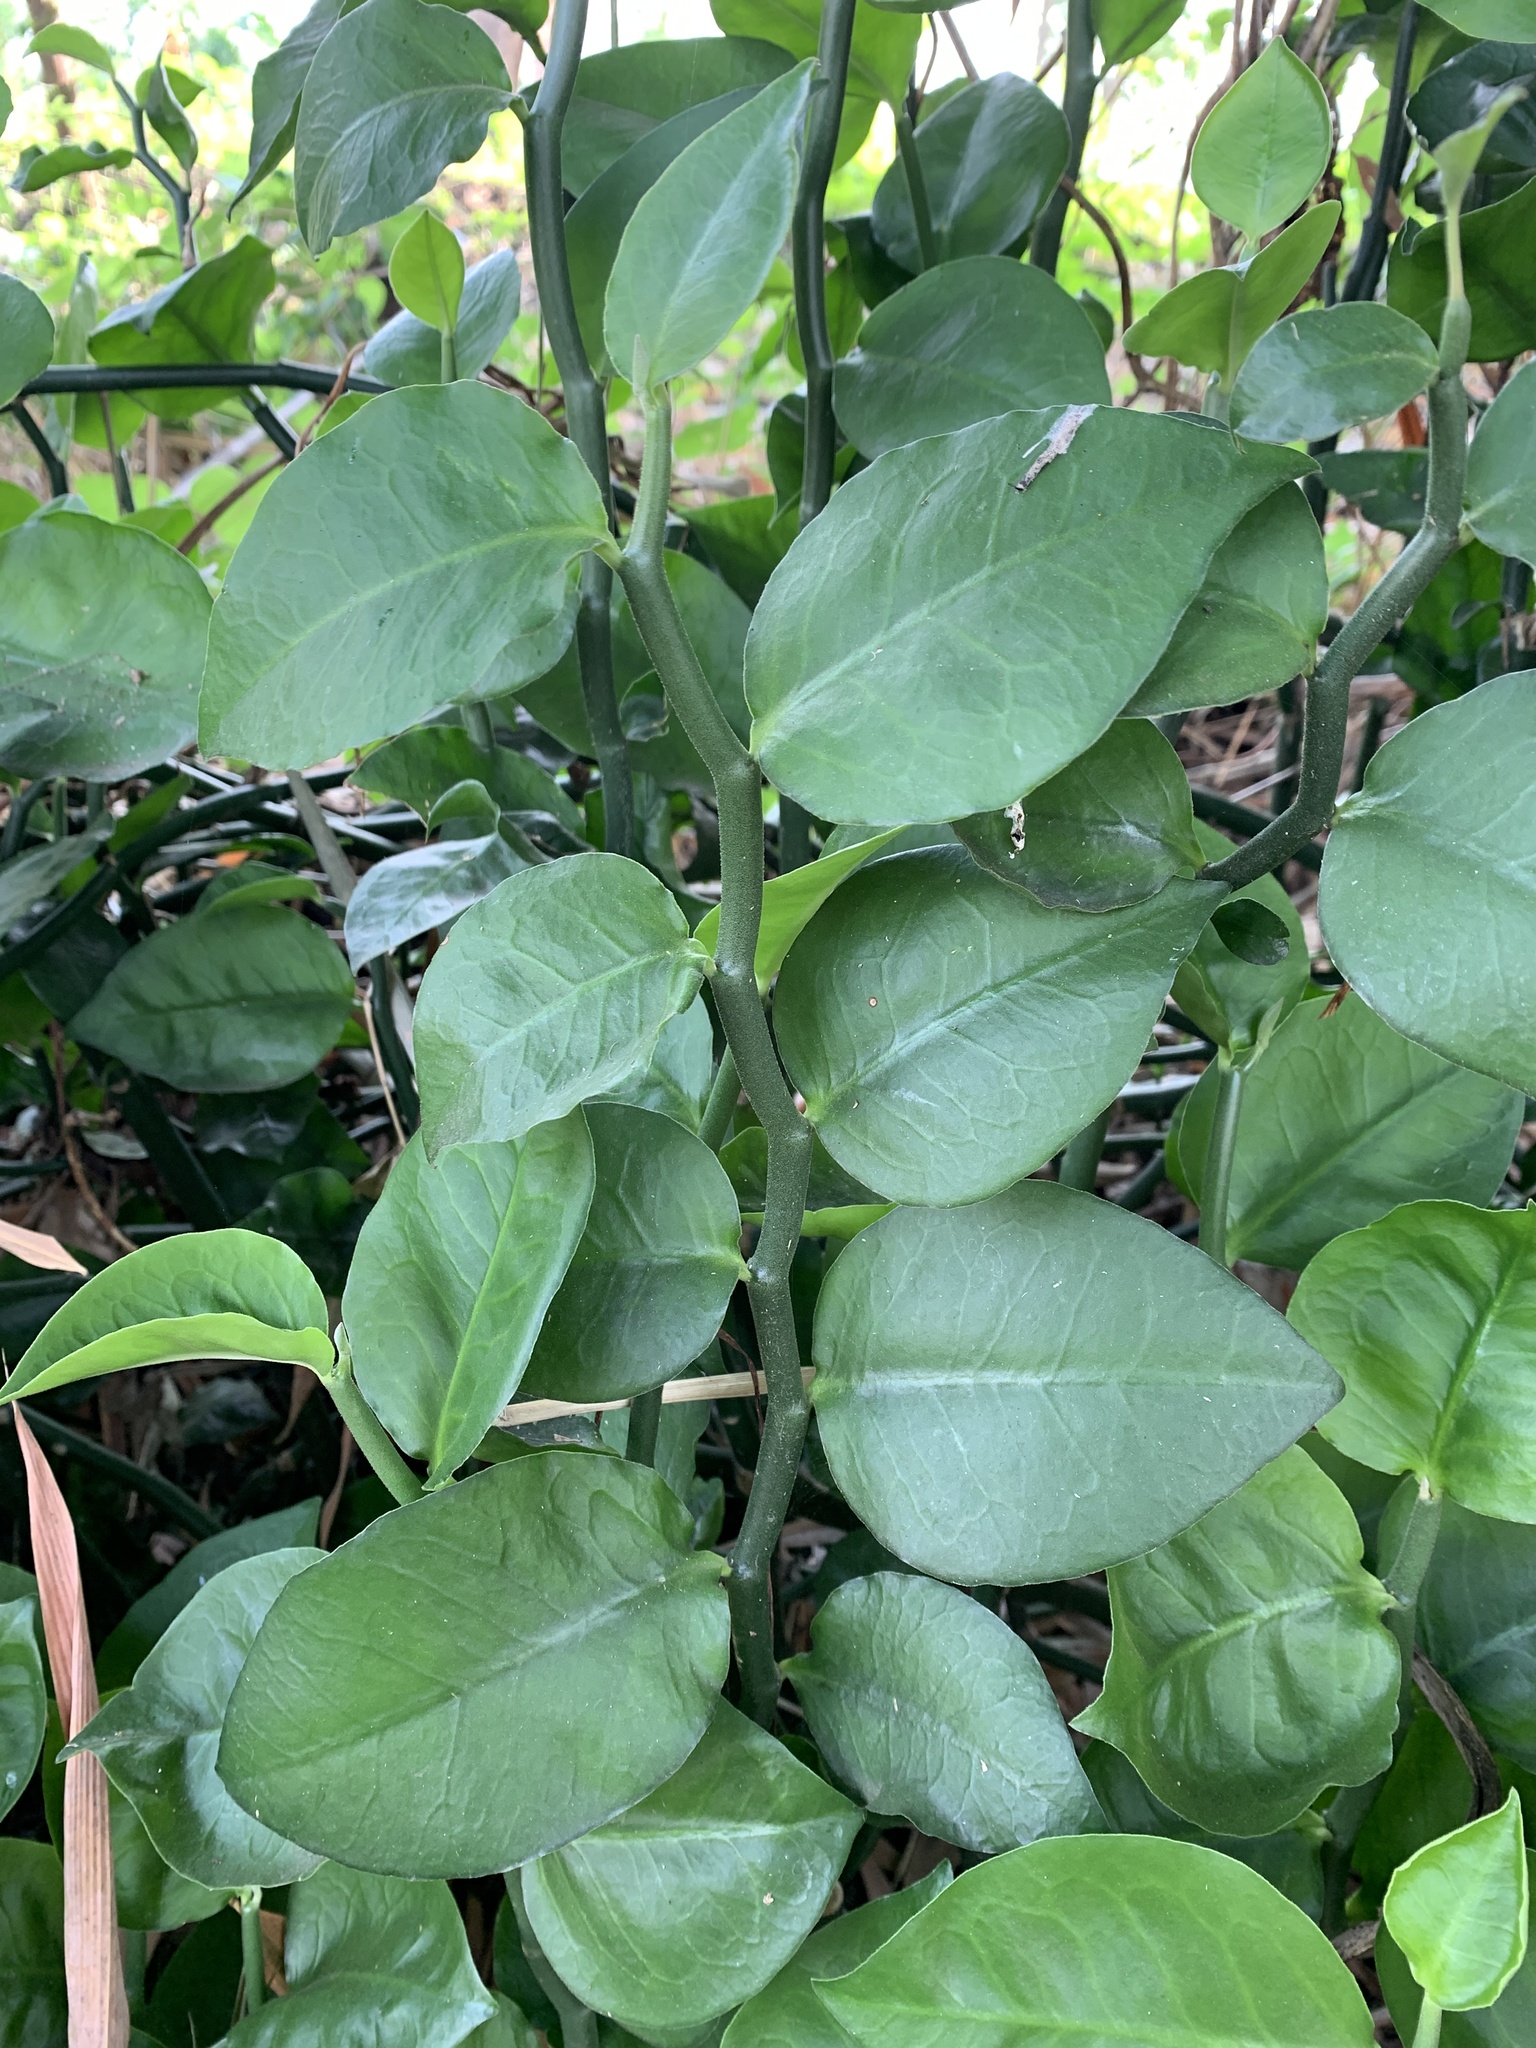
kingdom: Plantae
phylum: Tracheophyta
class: Magnoliopsida
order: Malpighiales
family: Euphorbiaceae
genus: Euphorbia
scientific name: Euphorbia tithymaloides
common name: Slipperplant
